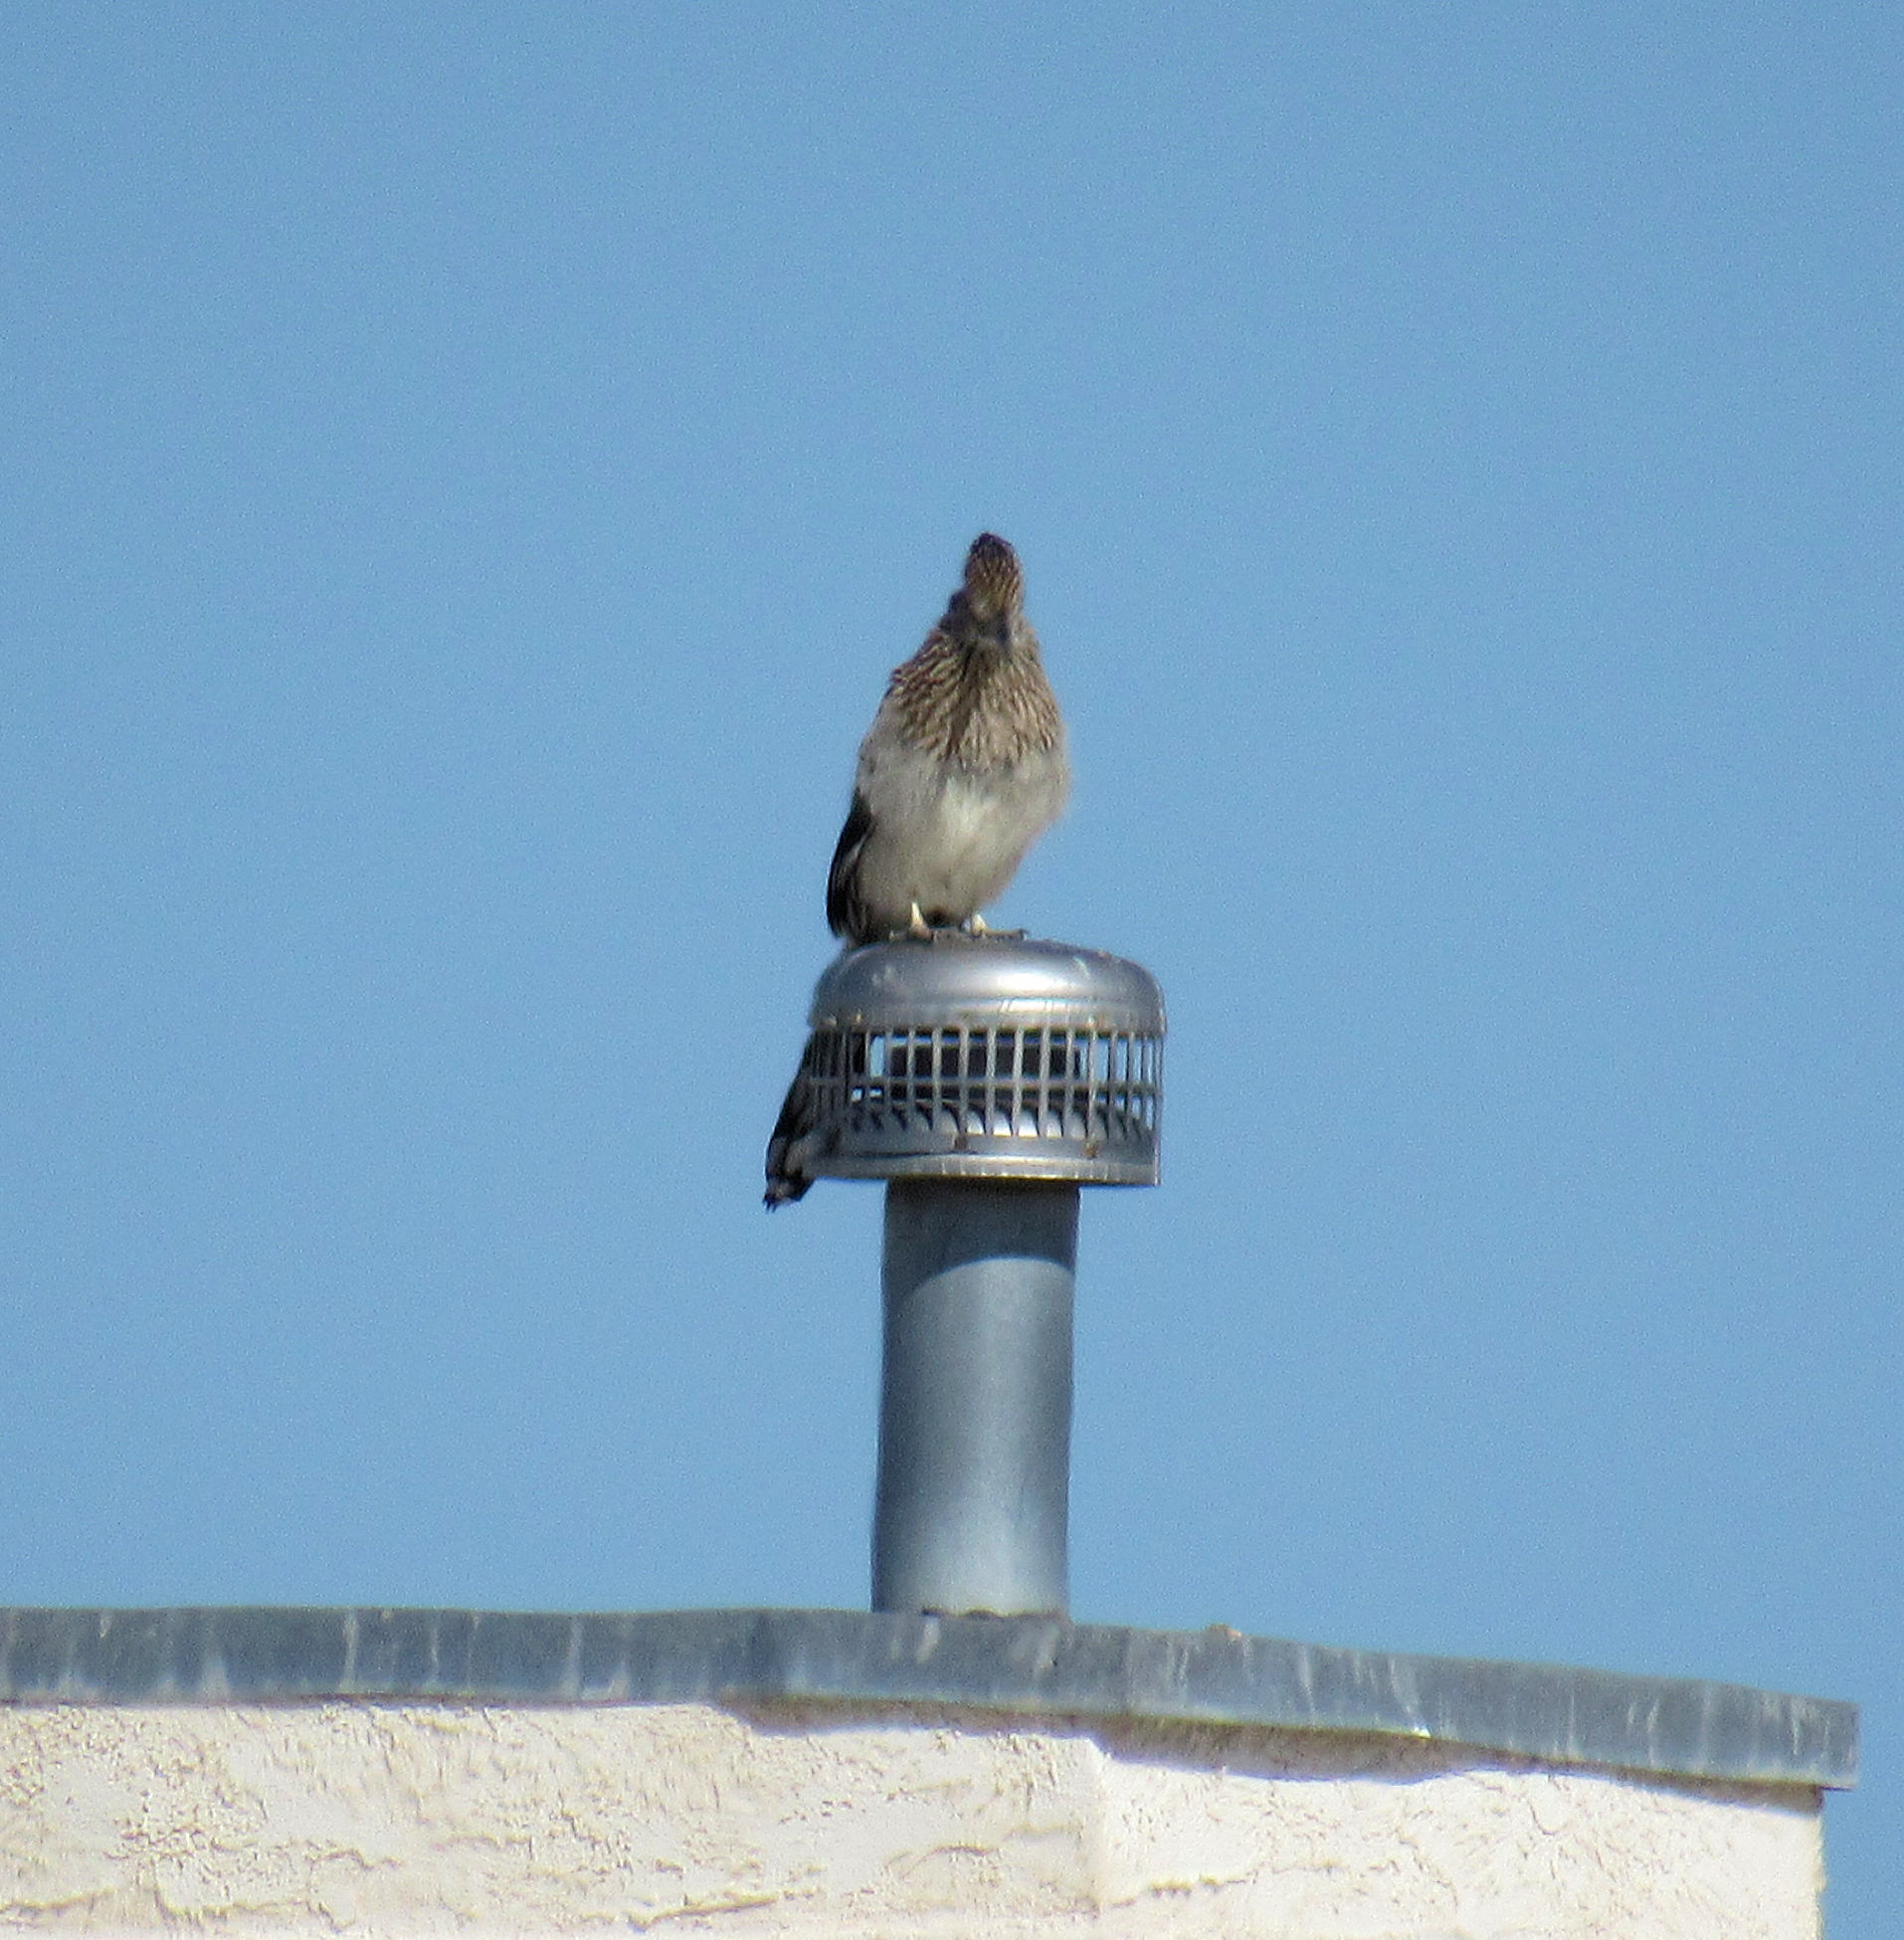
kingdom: Animalia
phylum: Chordata
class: Aves
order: Cuculiformes
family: Cuculidae
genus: Geococcyx
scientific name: Geococcyx californianus
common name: Greater roadrunner
